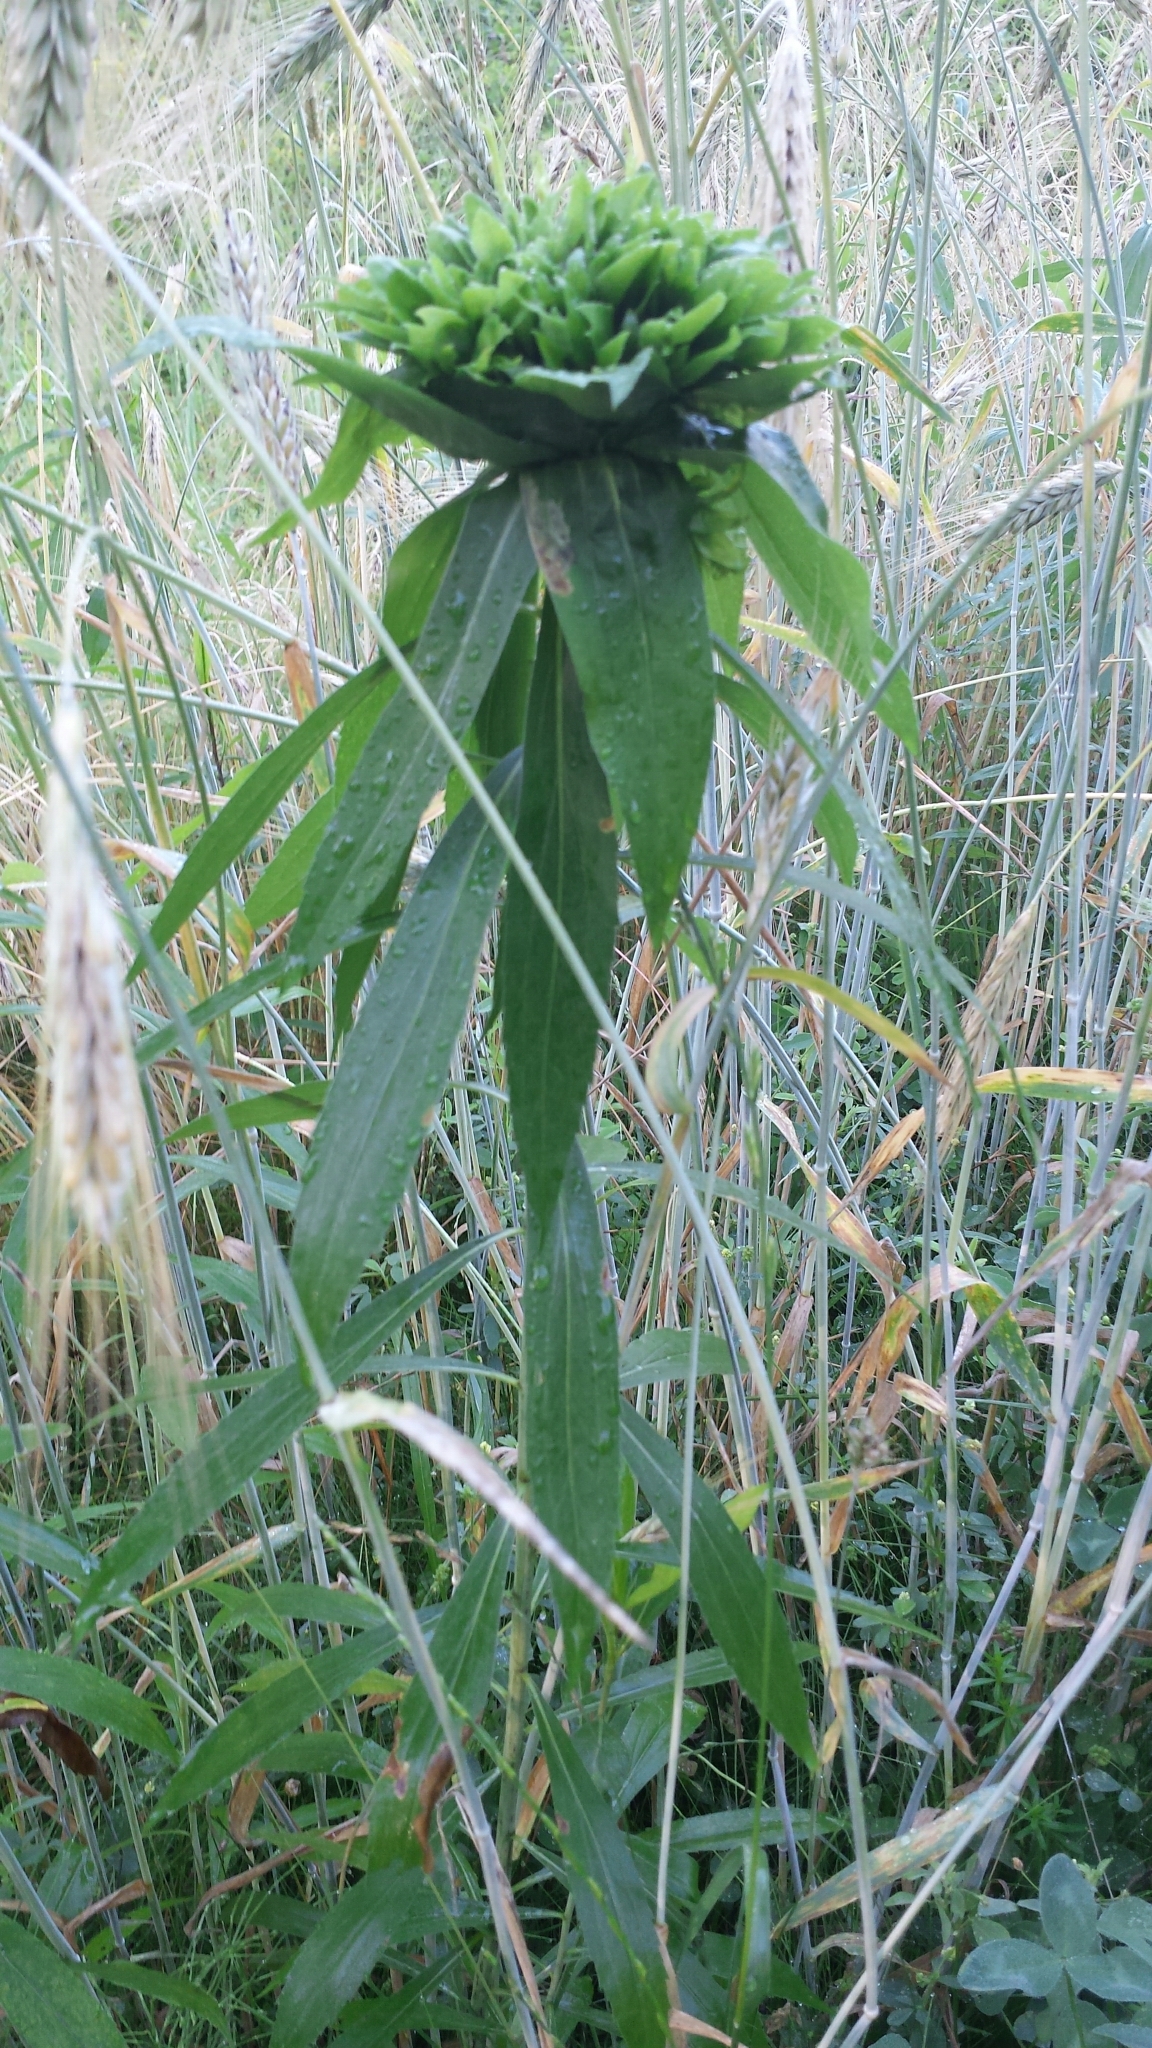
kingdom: Animalia
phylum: Arthropoda
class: Insecta
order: Diptera
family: Cecidomyiidae
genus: Rhopalomyia
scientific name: Rhopalomyia capitata
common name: Giant goldenrod bunch gall midge
